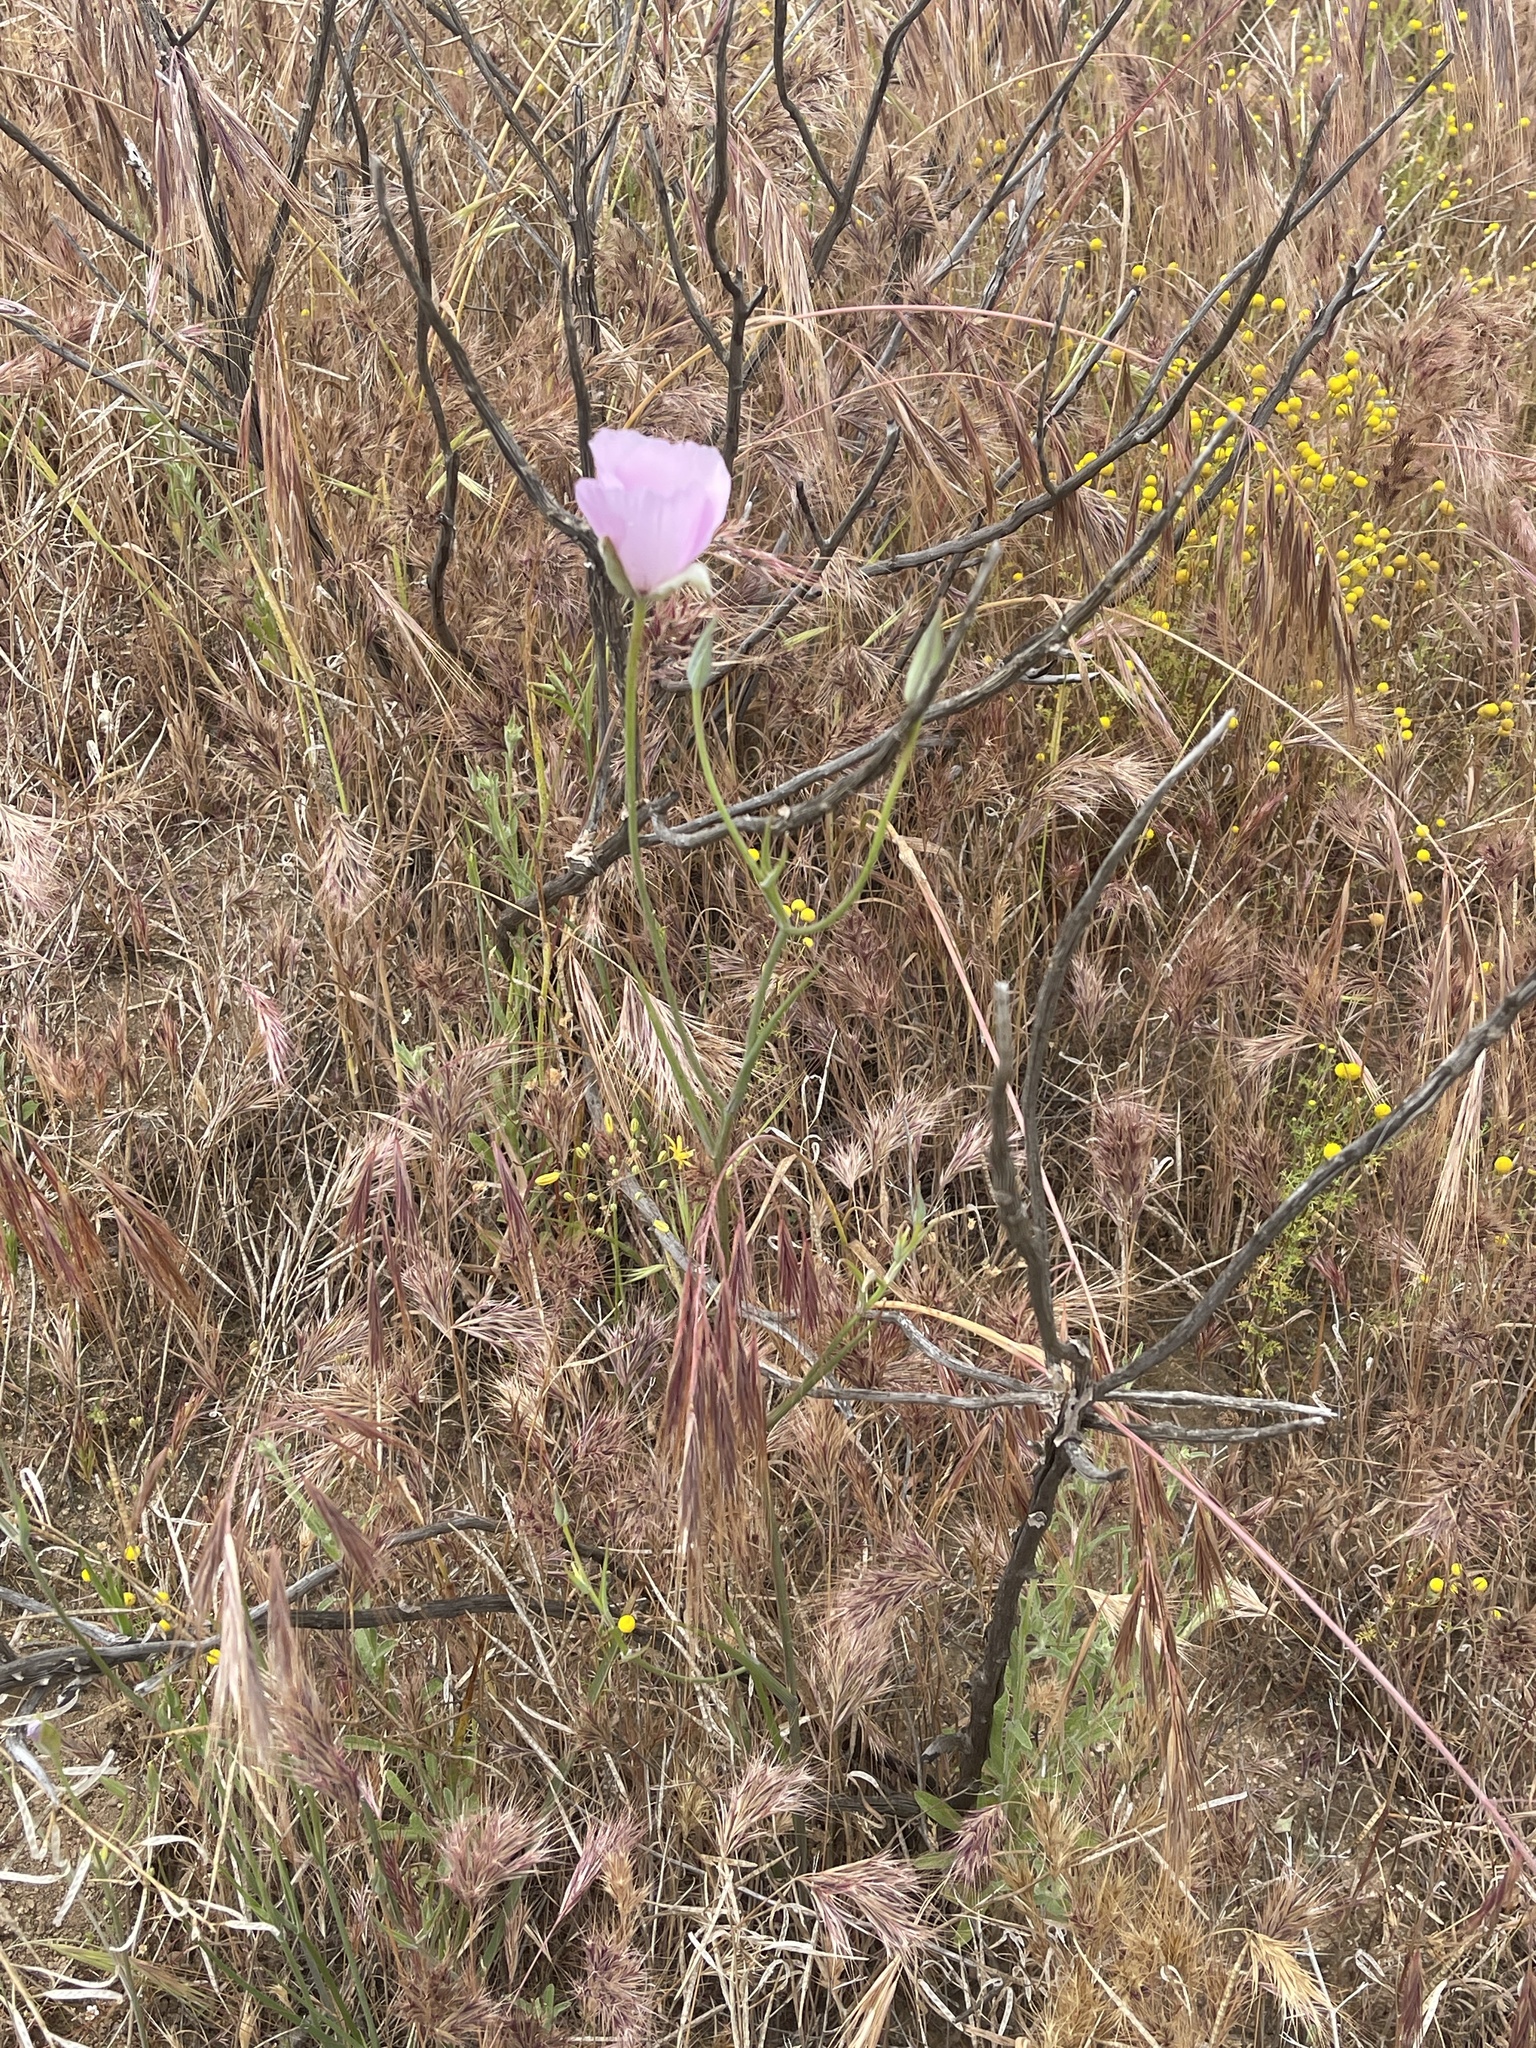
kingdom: Plantae
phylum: Tracheophyta
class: Liliopsida
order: Liliales
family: Liliaceae
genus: Calochortus
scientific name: Calochortus splendens
